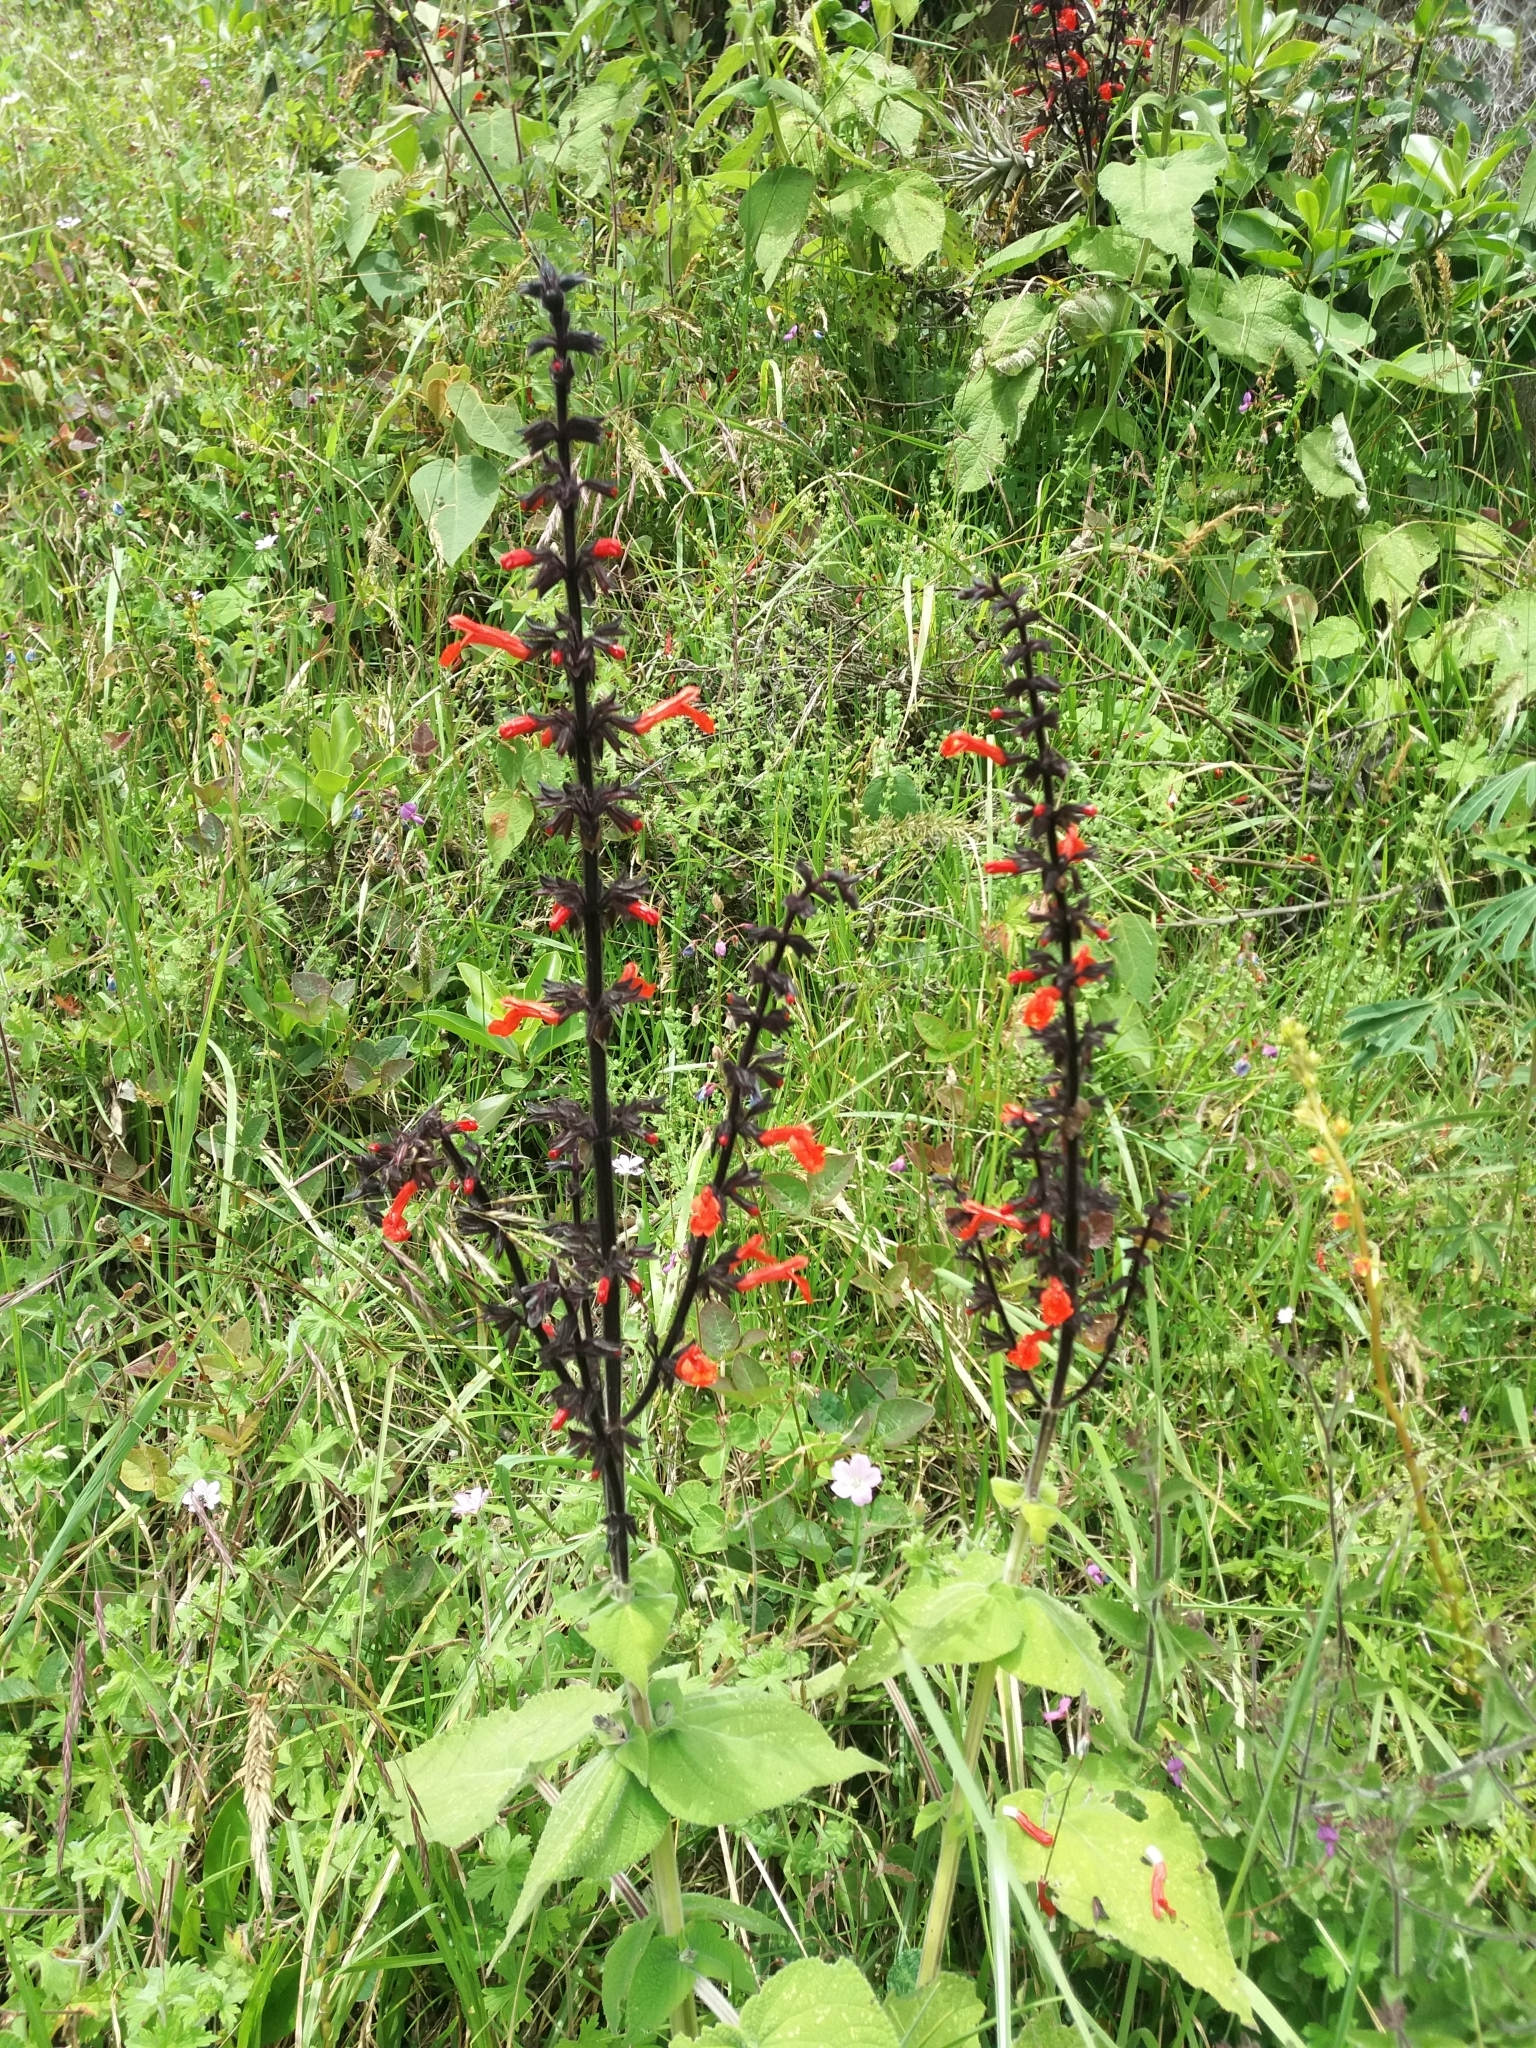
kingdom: Plantae
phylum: Tracheophyta
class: Magnoliopsida
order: Lamiales
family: Lamiaceae
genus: Salvia
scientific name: Salvia rubescens
